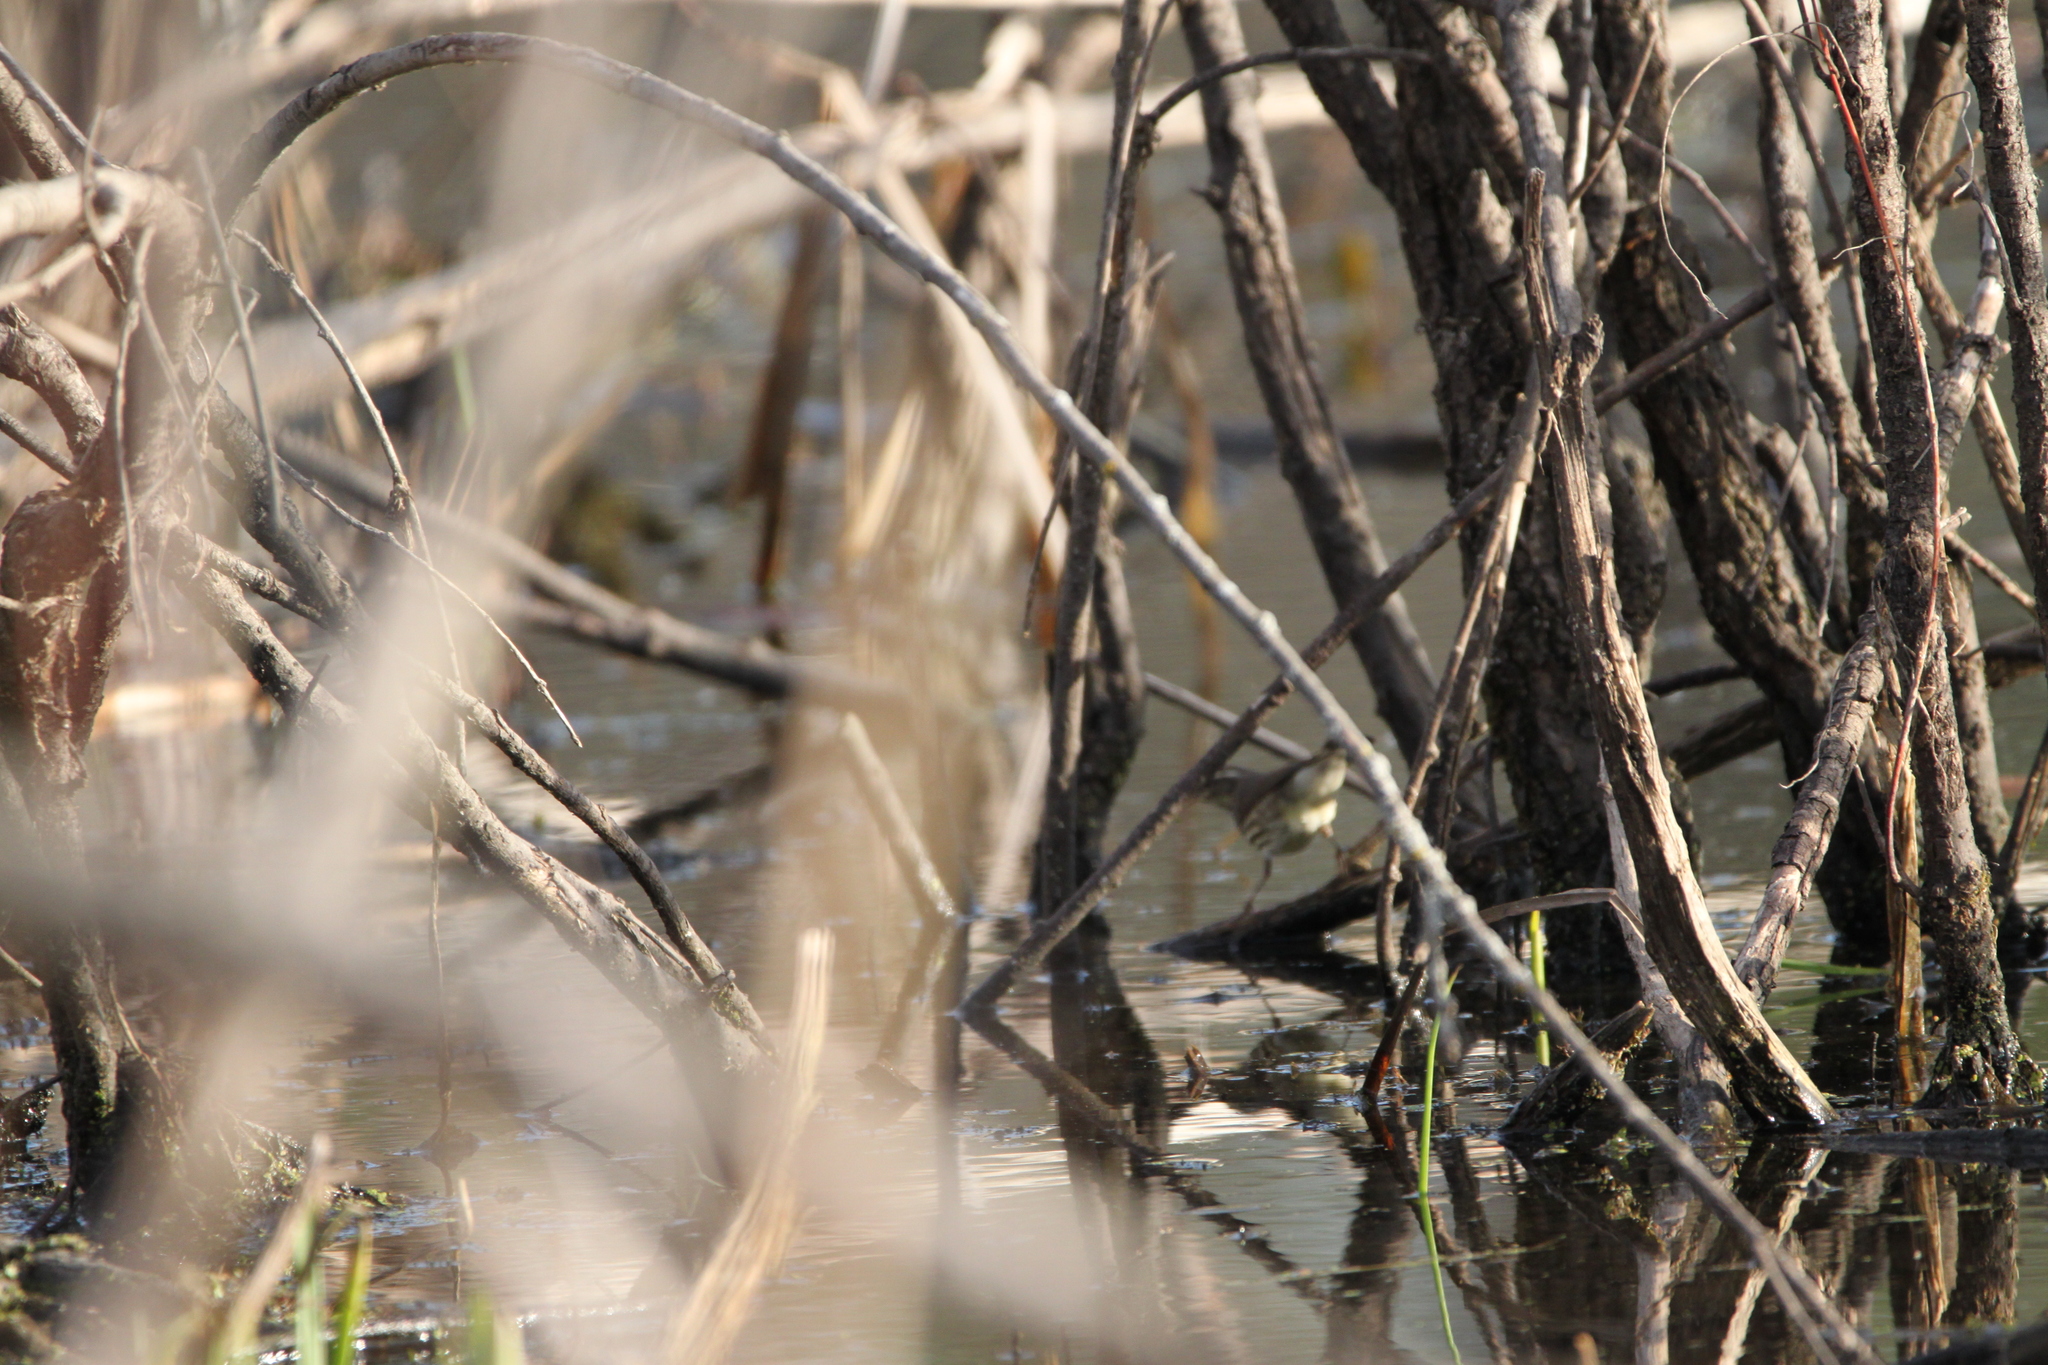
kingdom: Animalia
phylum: Chordata
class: Aves
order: Passeriformes
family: Parulidae
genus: Parkesia
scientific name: Parkesia noveboracensis
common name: Northern waterthrush
